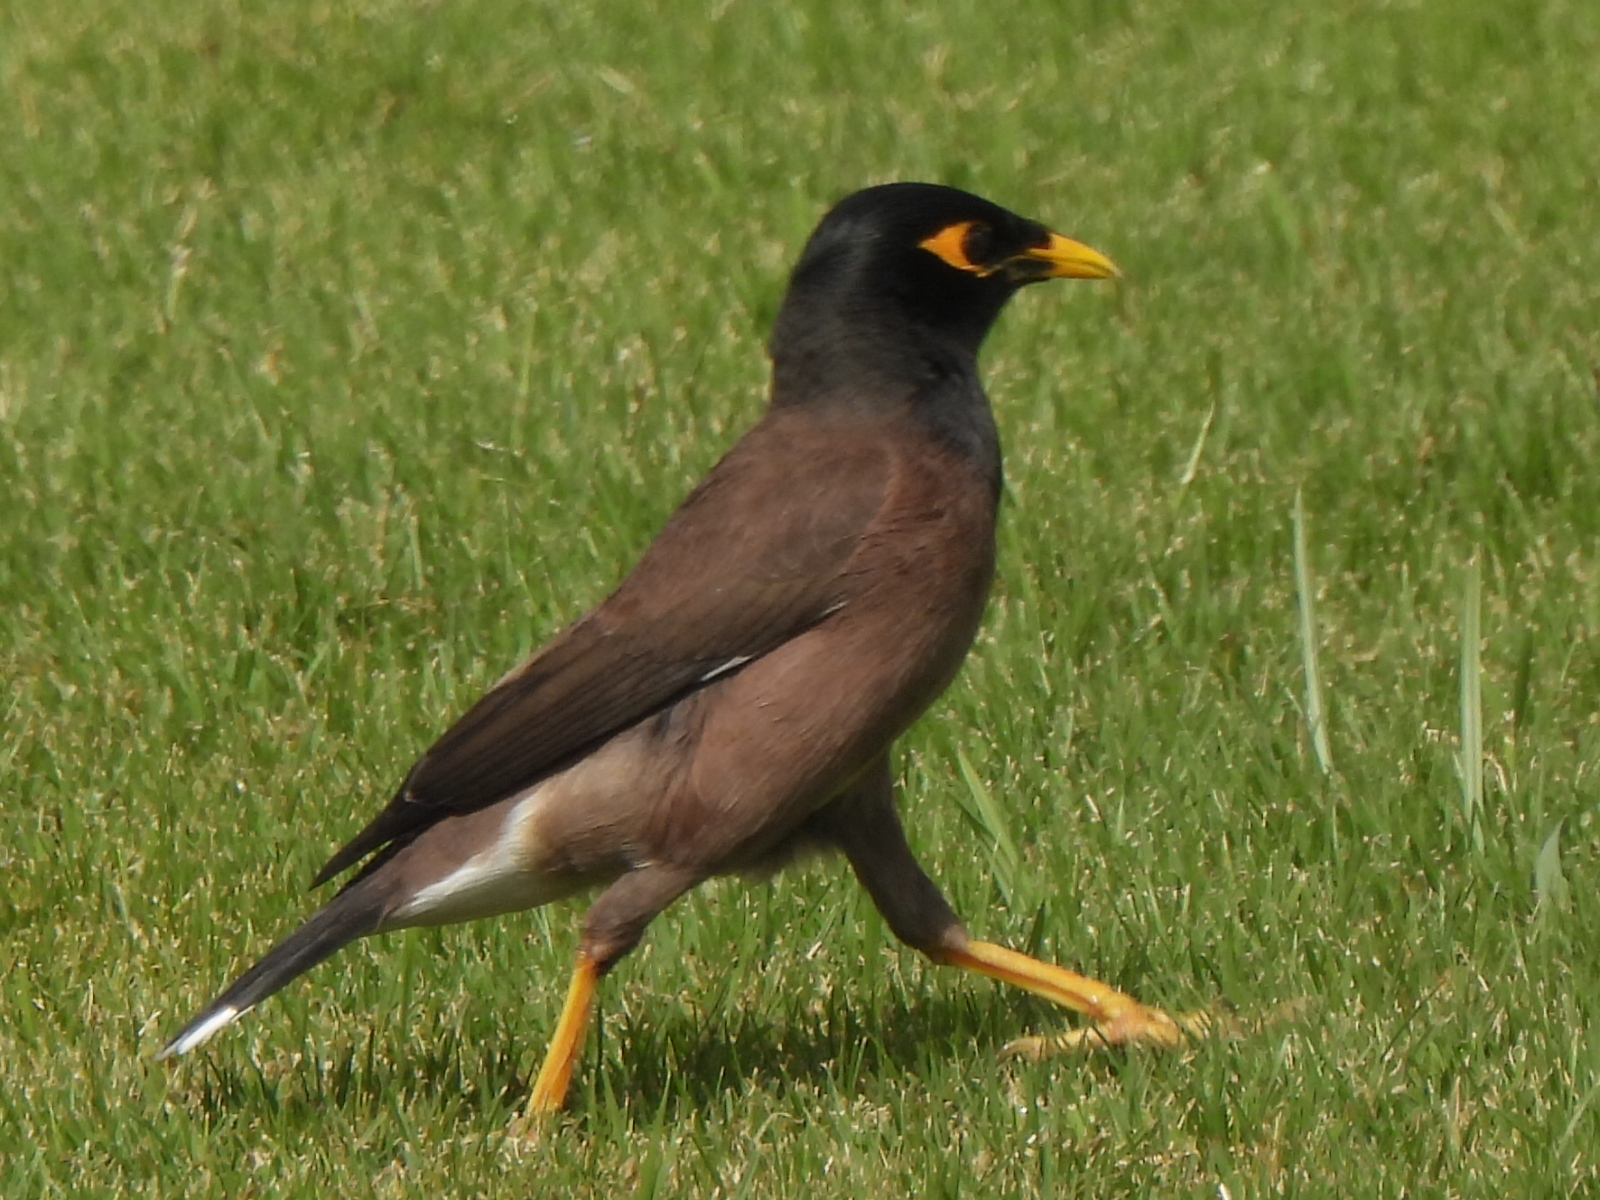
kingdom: Animalia
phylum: Chordata
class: Aves
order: Passeriformes
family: Sturnidae
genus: Acridotheres
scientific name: Acridotheres tristis
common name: Common myna
